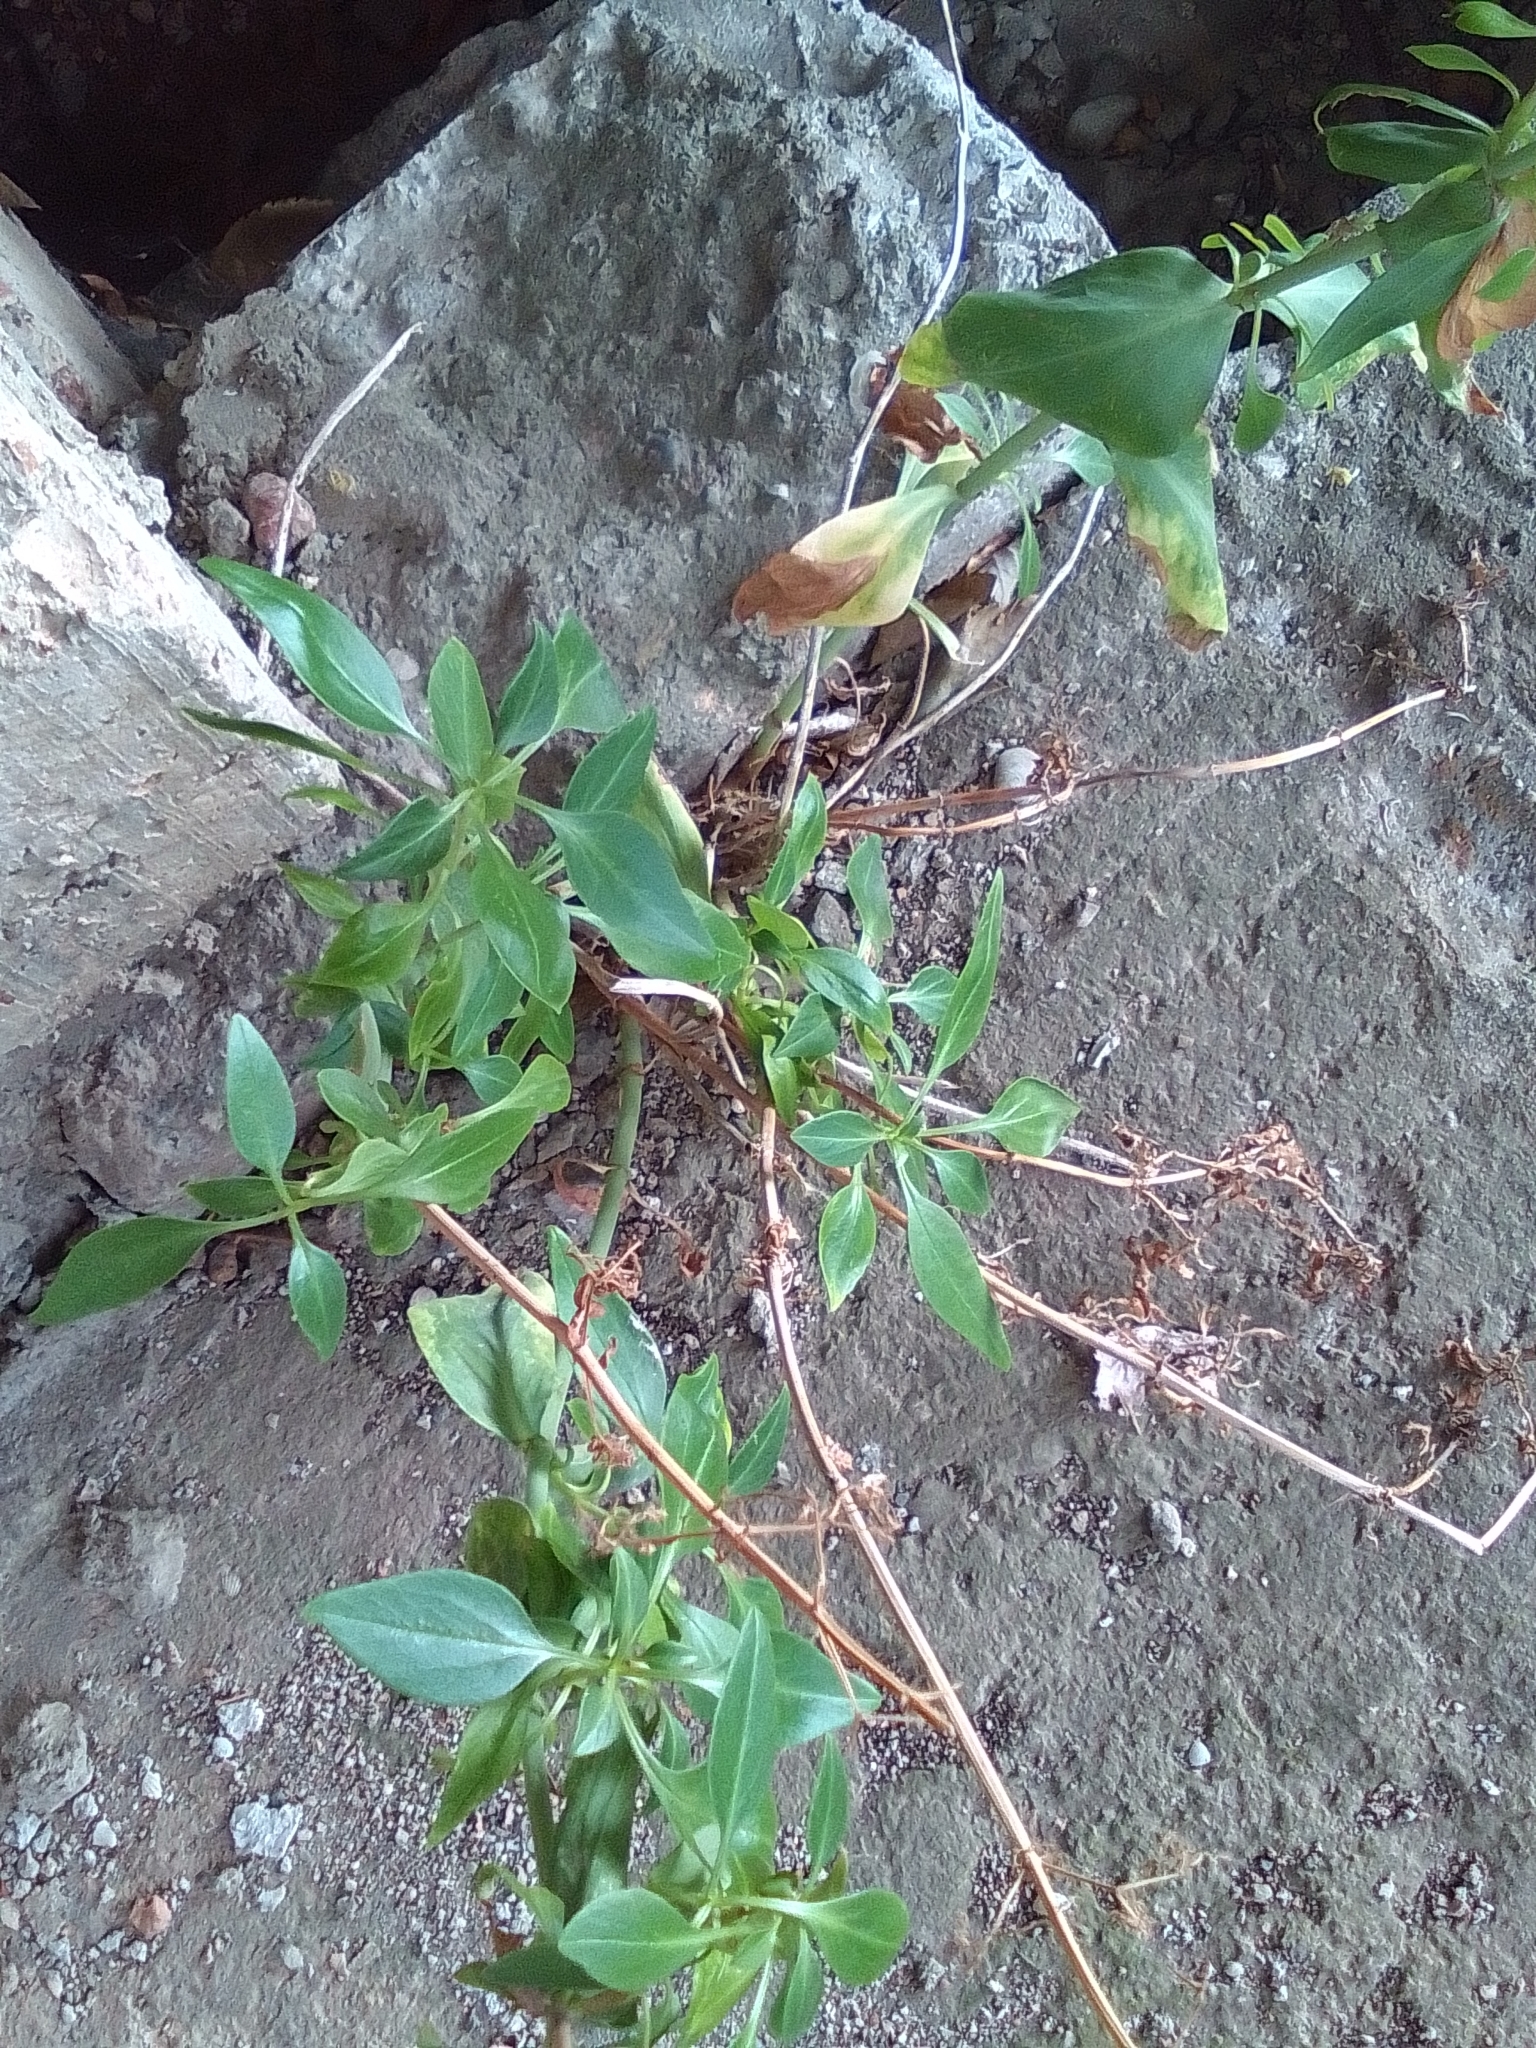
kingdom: Plantae
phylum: Tracheophyta
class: Magnoliopsida
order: Dipsacales
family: Caprifoliaceae
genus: Centranthus
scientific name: Centranthus ruber
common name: Red valerian
